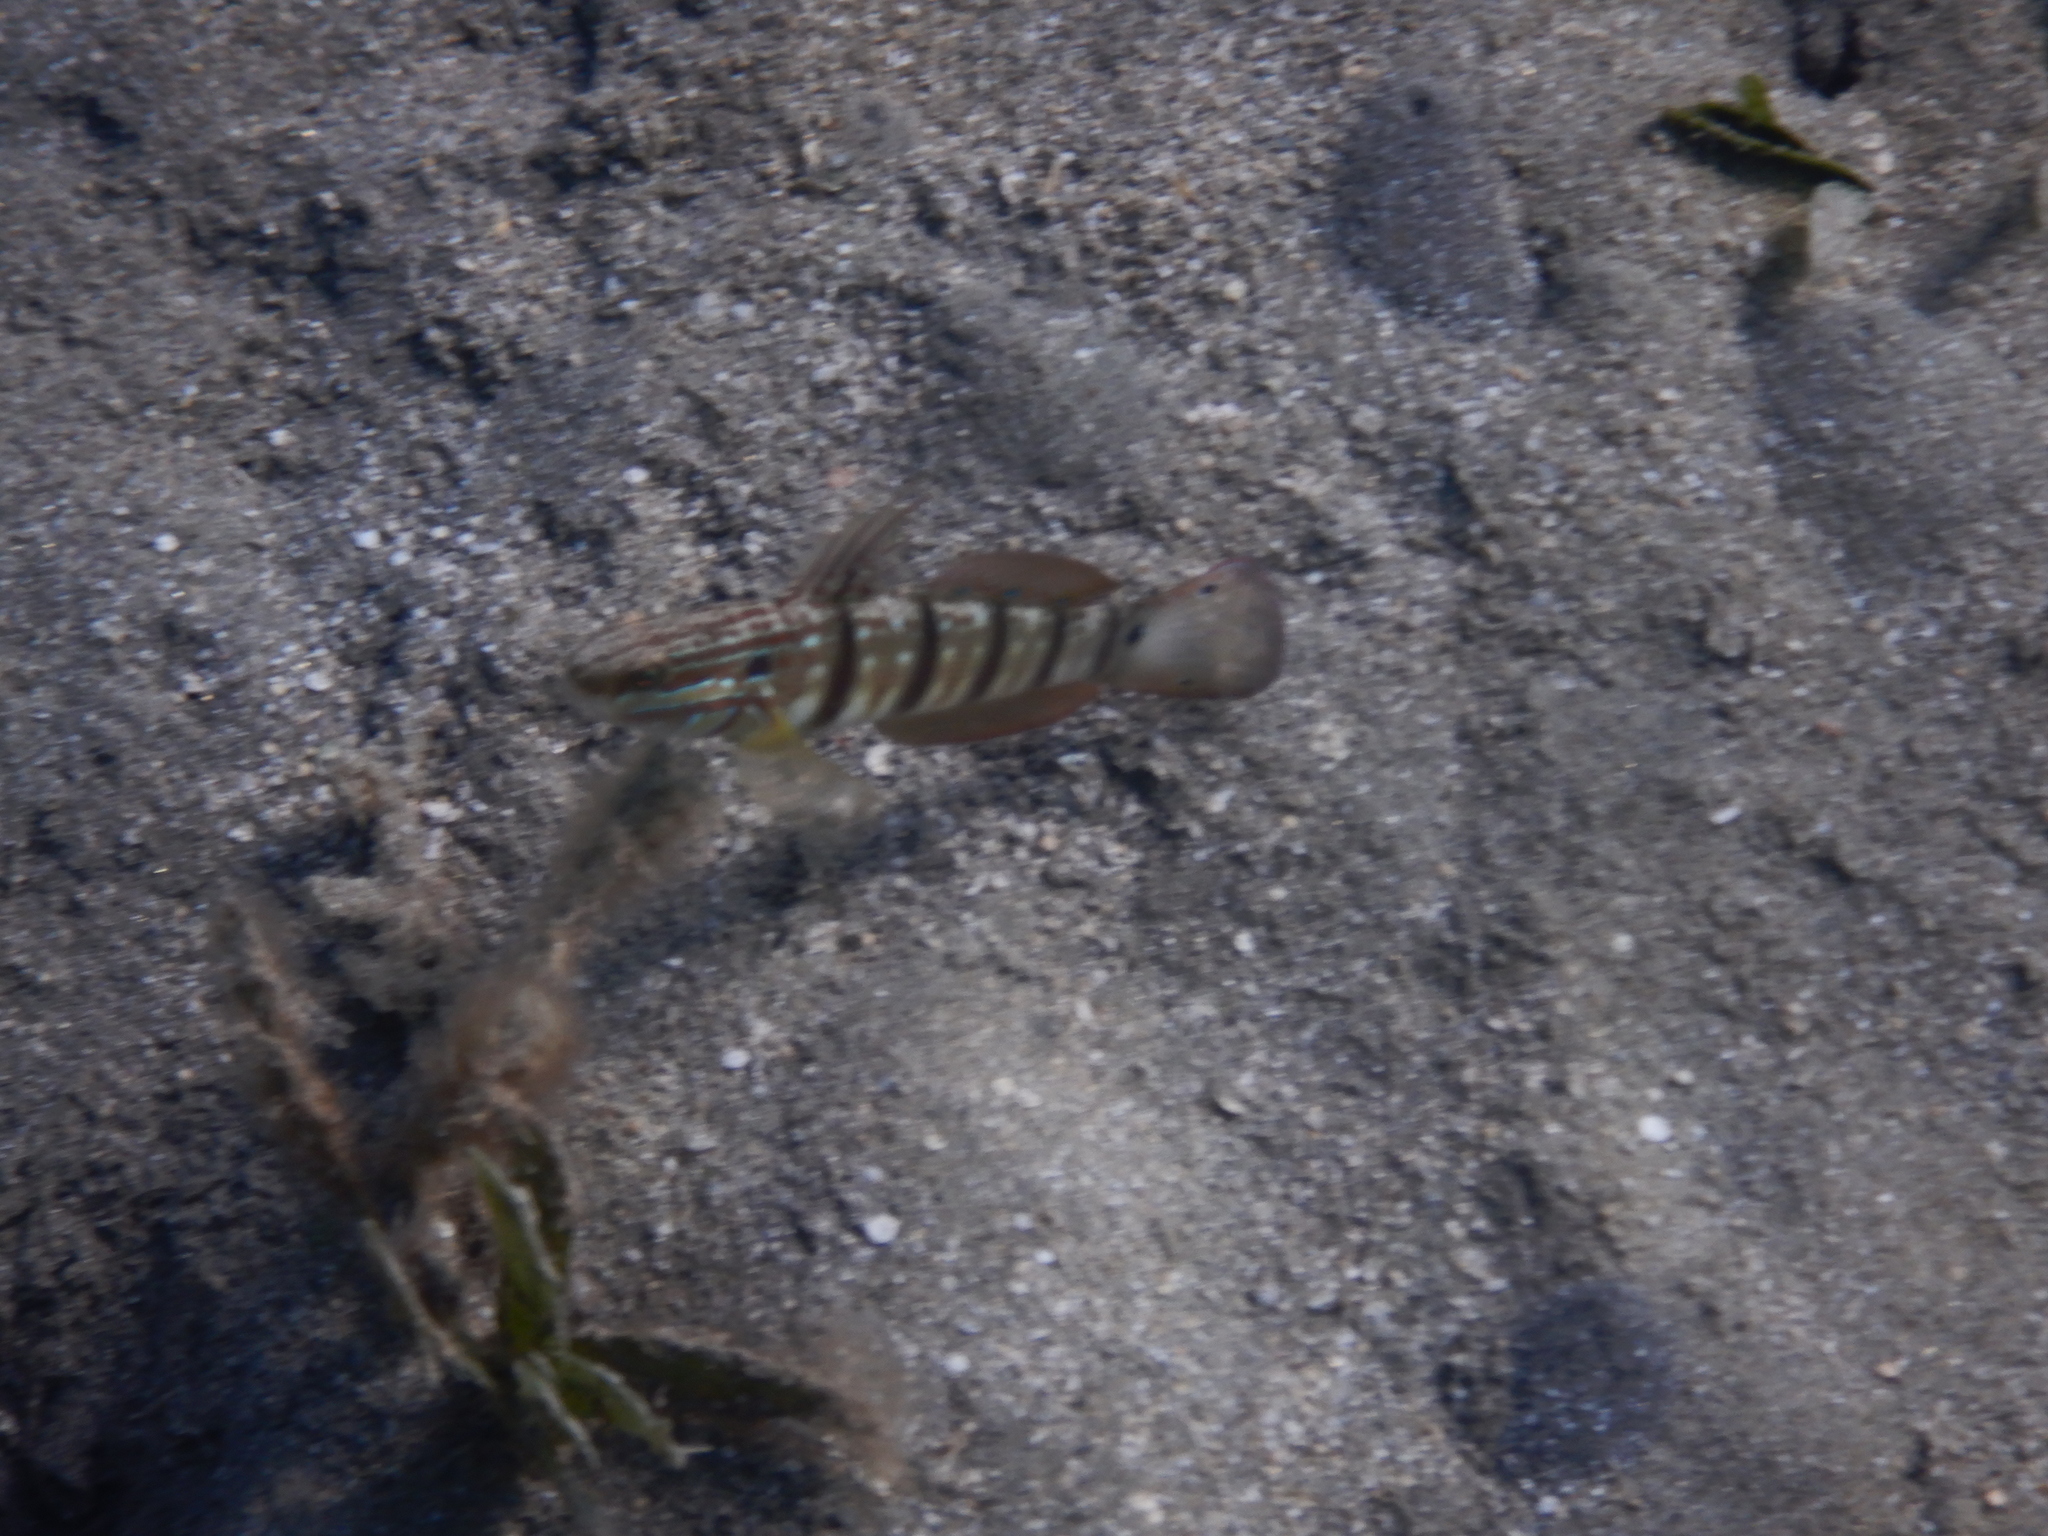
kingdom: Animalia
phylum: Chordata
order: Perciformes
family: Gobiidae
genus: Amblygobius
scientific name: Amblygobius albimaculatus
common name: Butterfly goby
